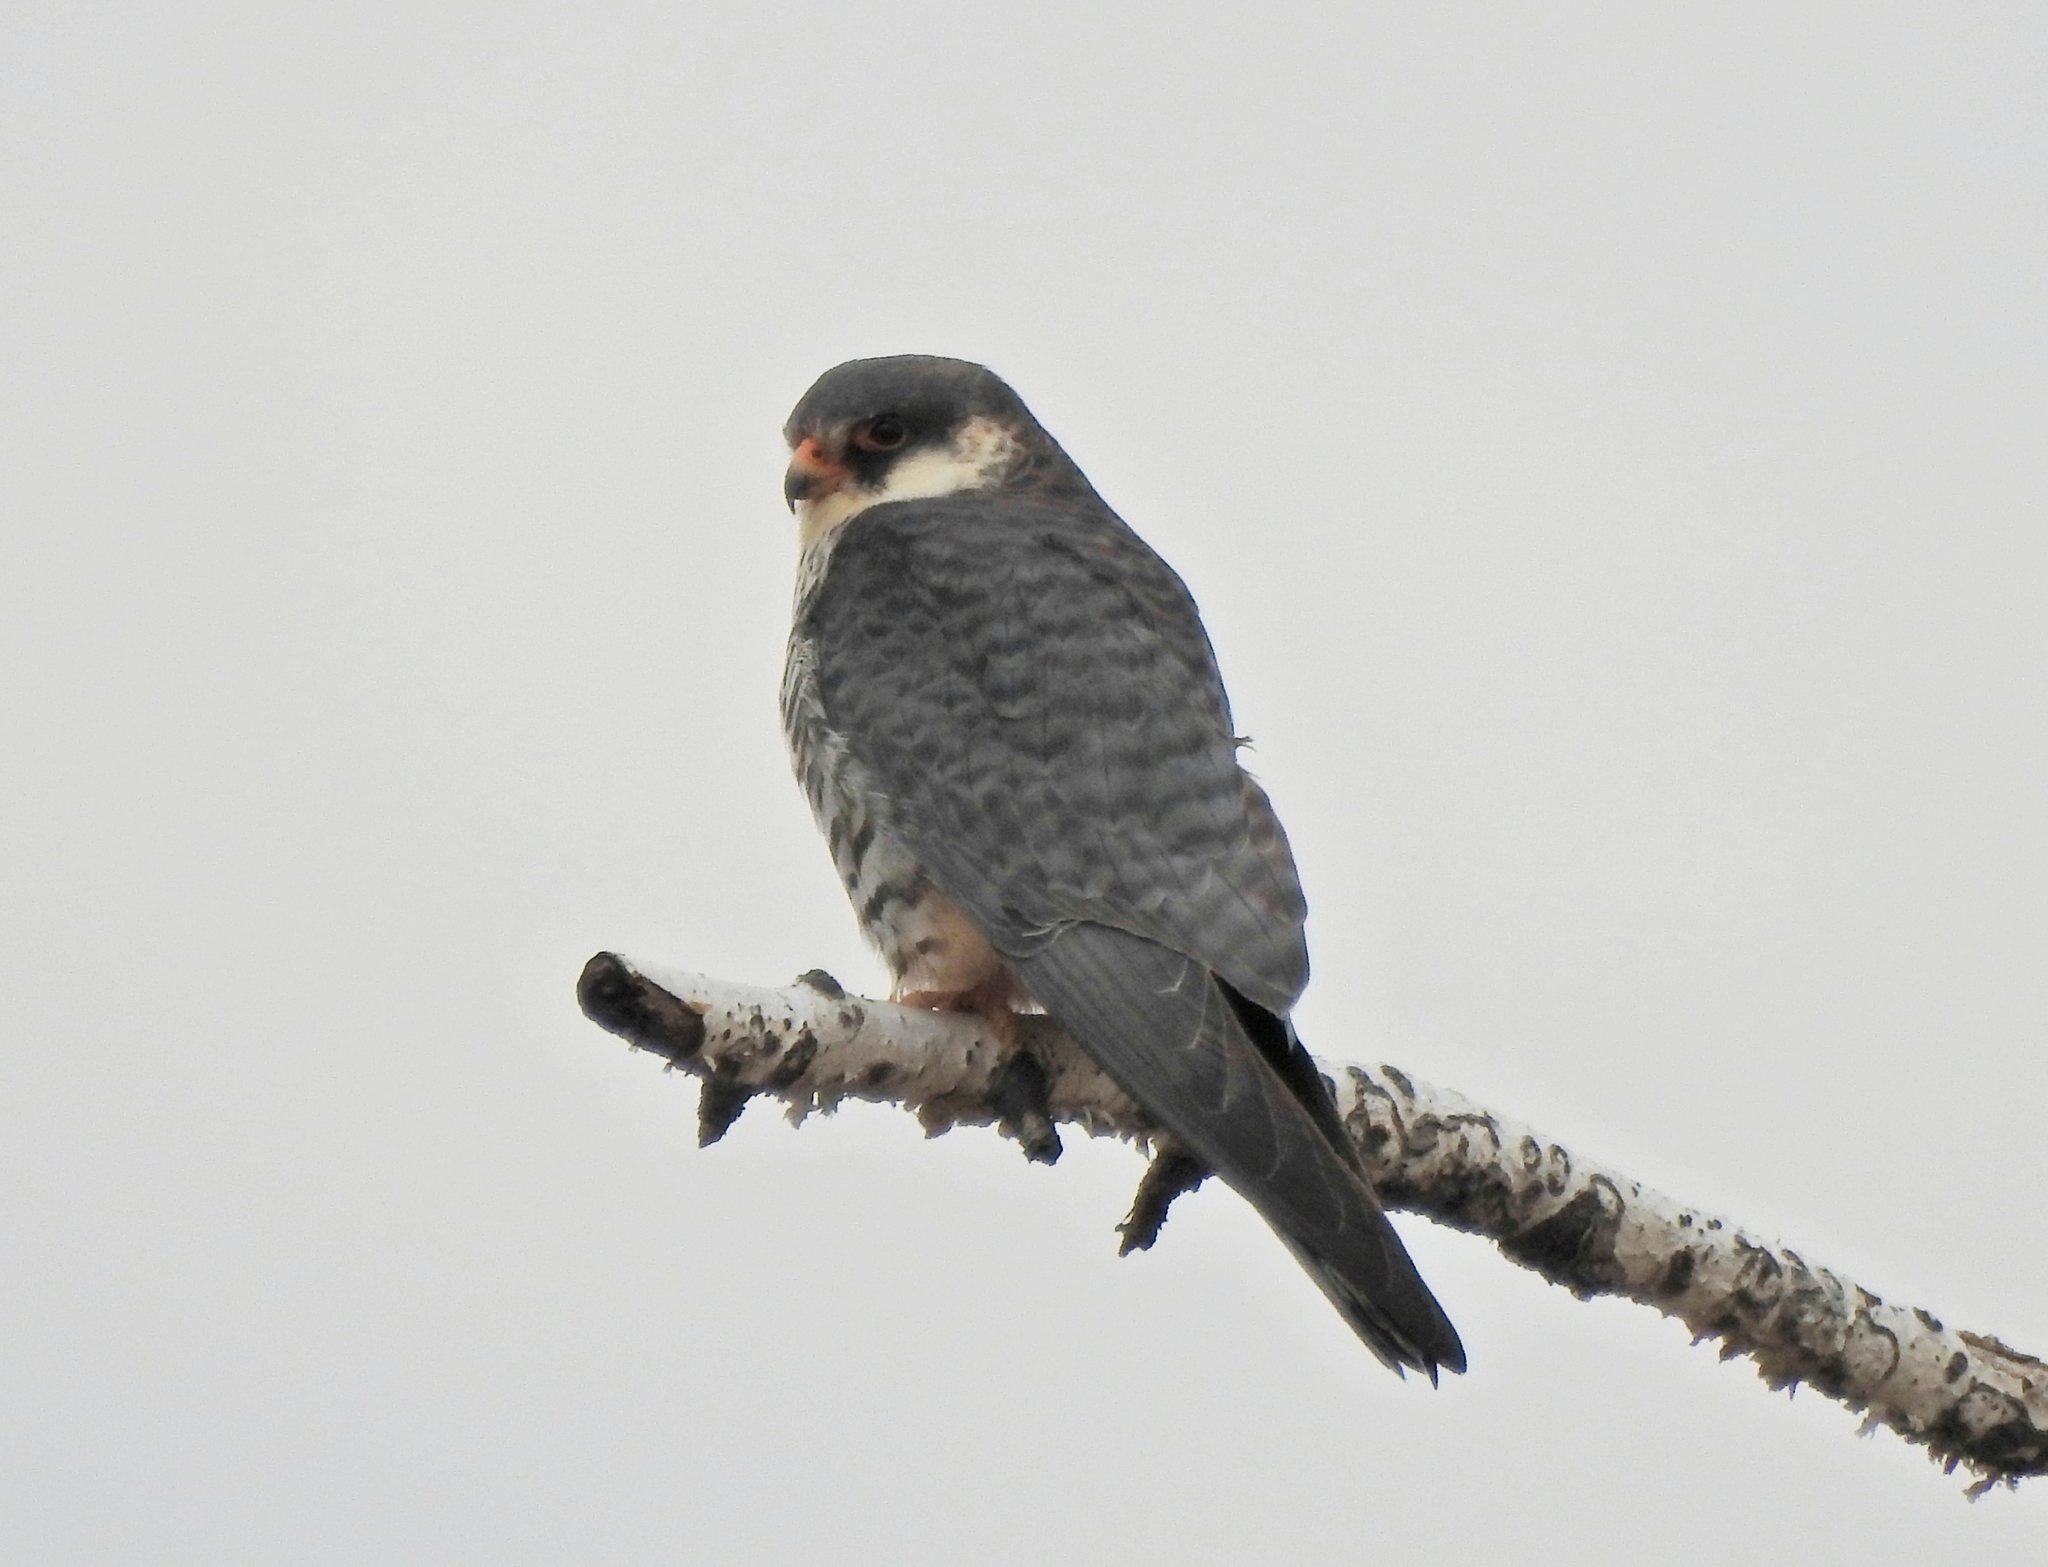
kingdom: Animalia
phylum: Chordata
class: Aves
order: Falconiformes
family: Falconidae
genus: Falco
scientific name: Falco amurensis
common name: Amur falcon
